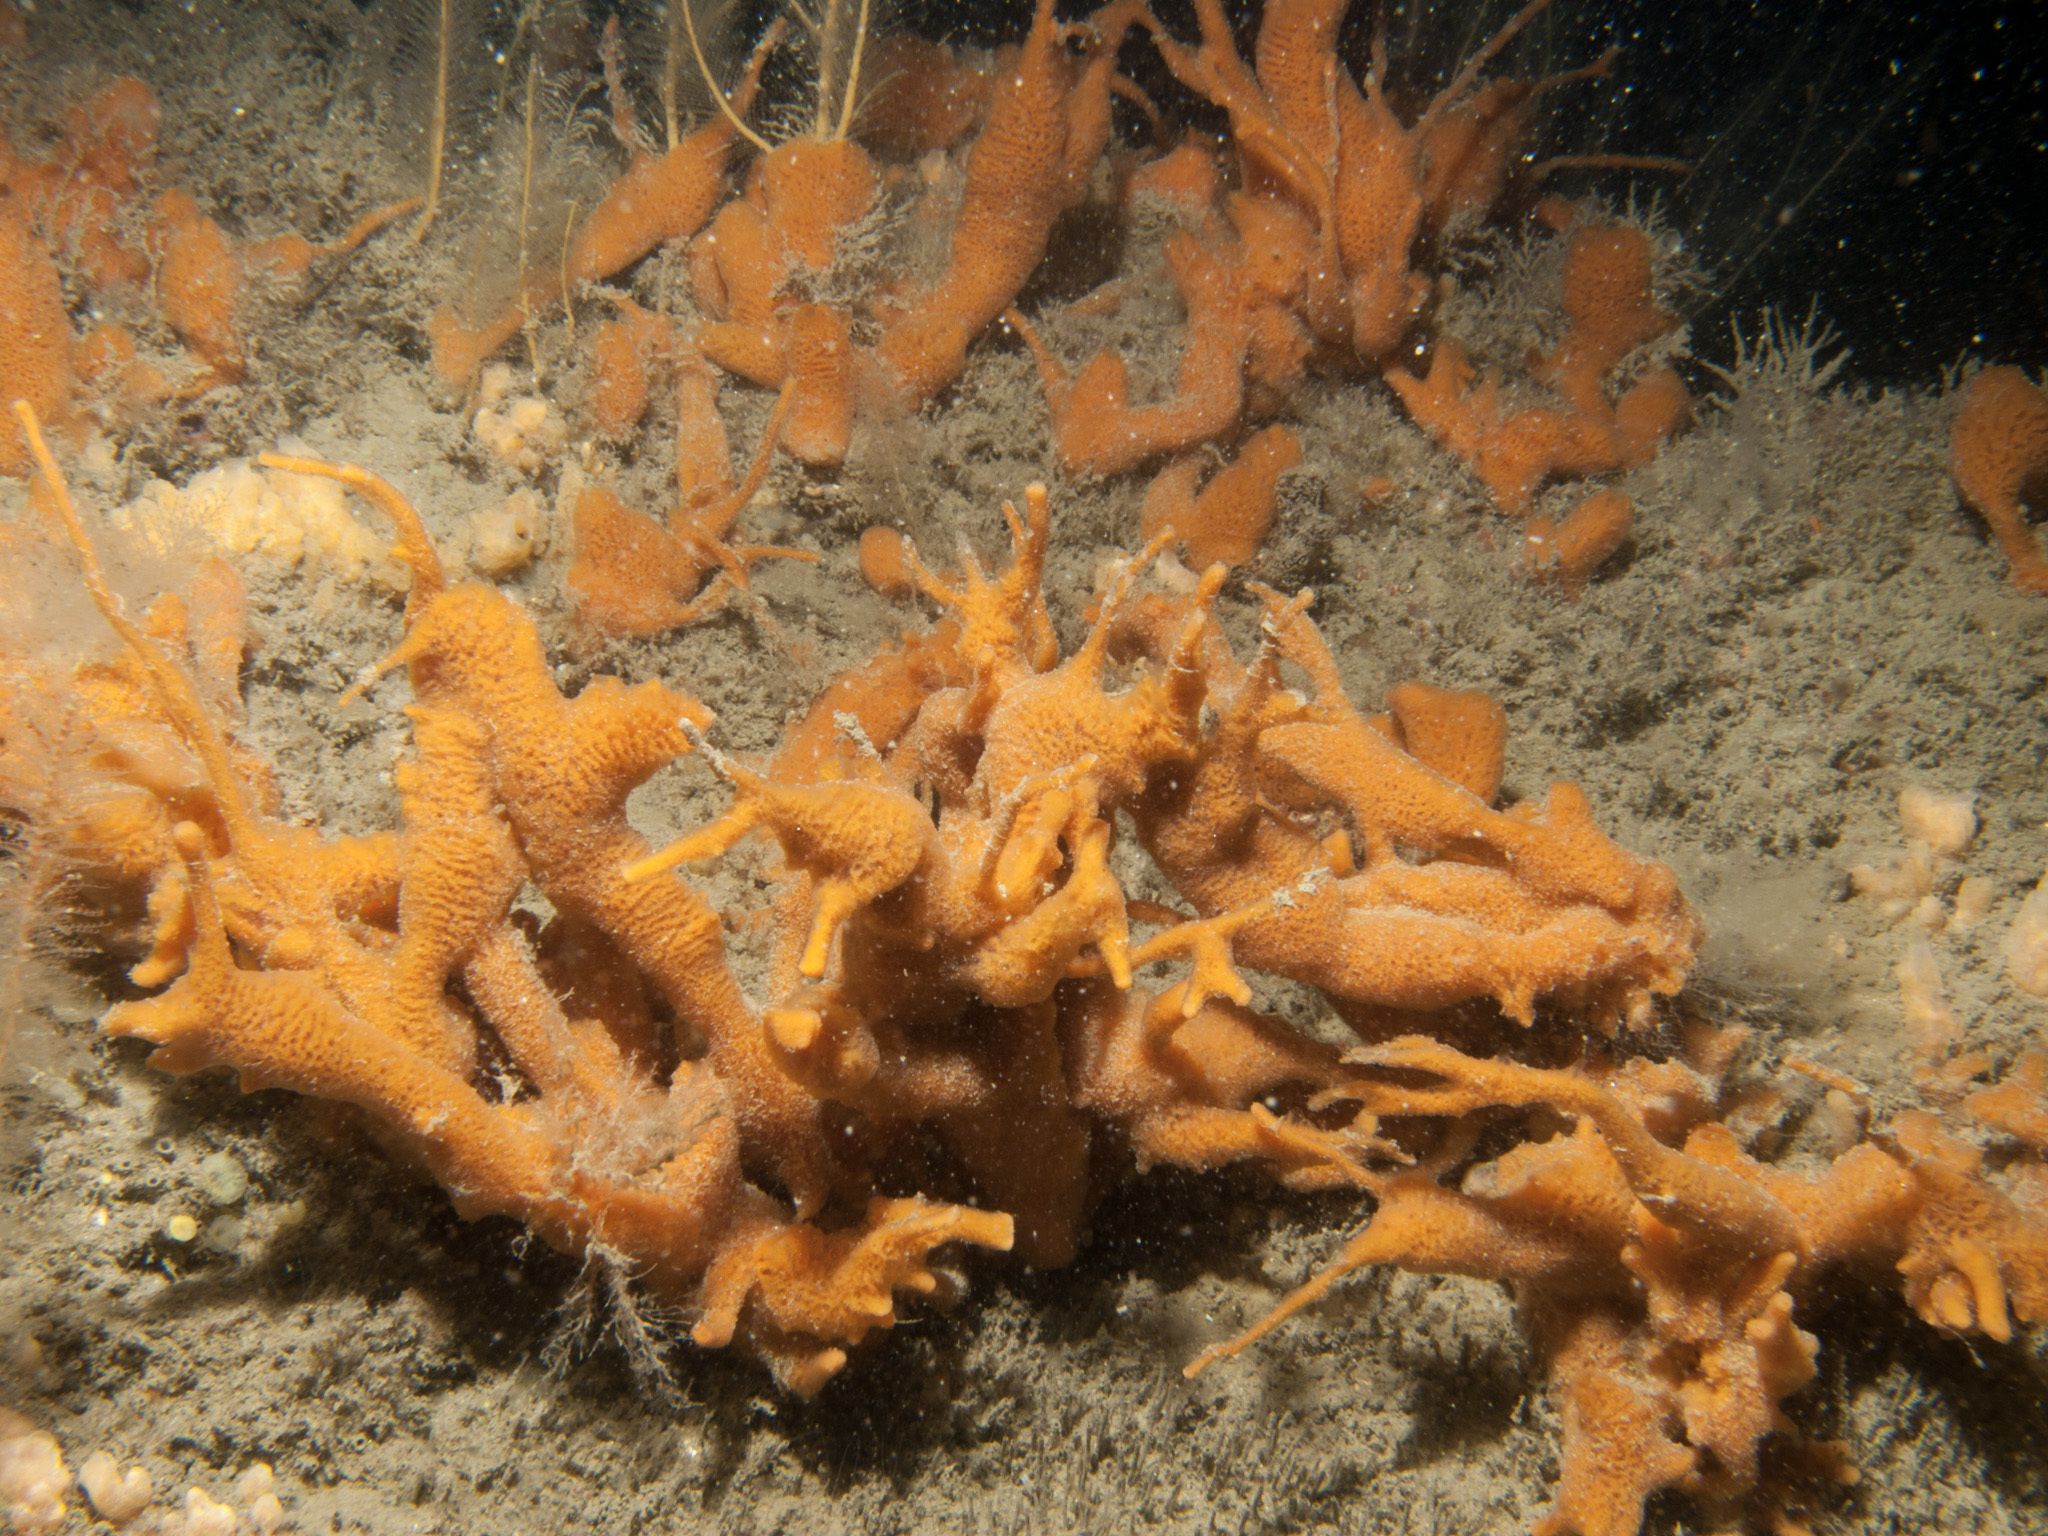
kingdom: Animalia
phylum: Porifera
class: Demospongiae
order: Poecilosclerida
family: Esperiopsidae
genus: Amphilectus
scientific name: Amphilectus fucorum
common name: Carrot-sponge
